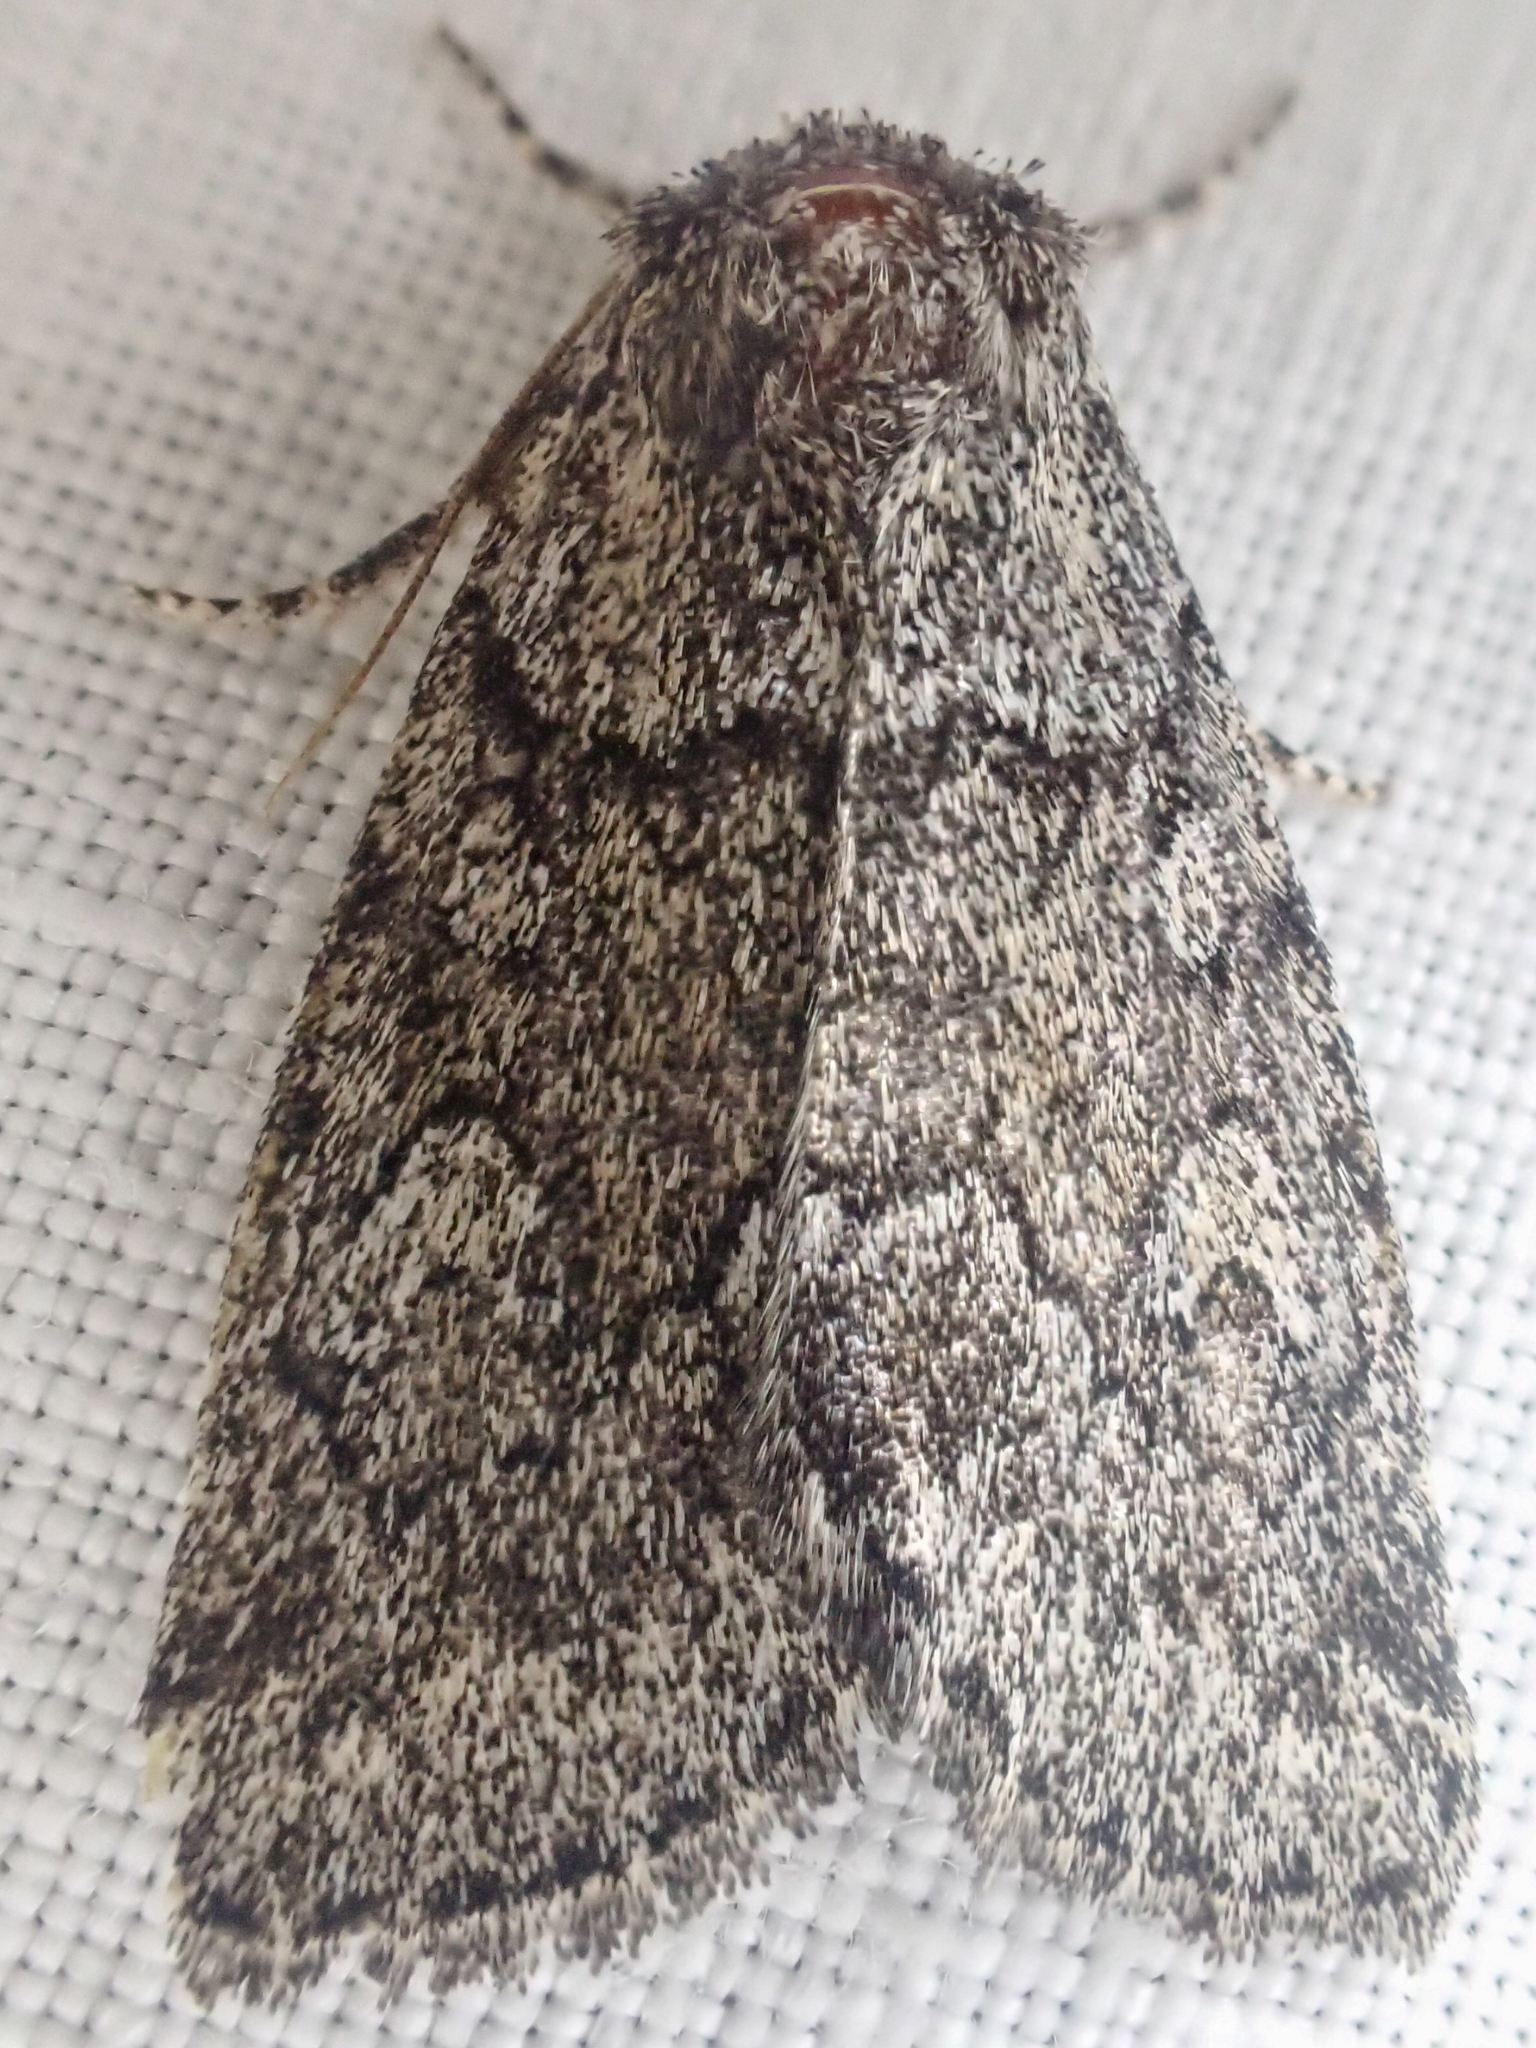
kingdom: Animalia
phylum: Arthropoda
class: Insecta
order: Lepidoptera
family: Noctuidae
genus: Cosmia
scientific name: Cosmia elisae
